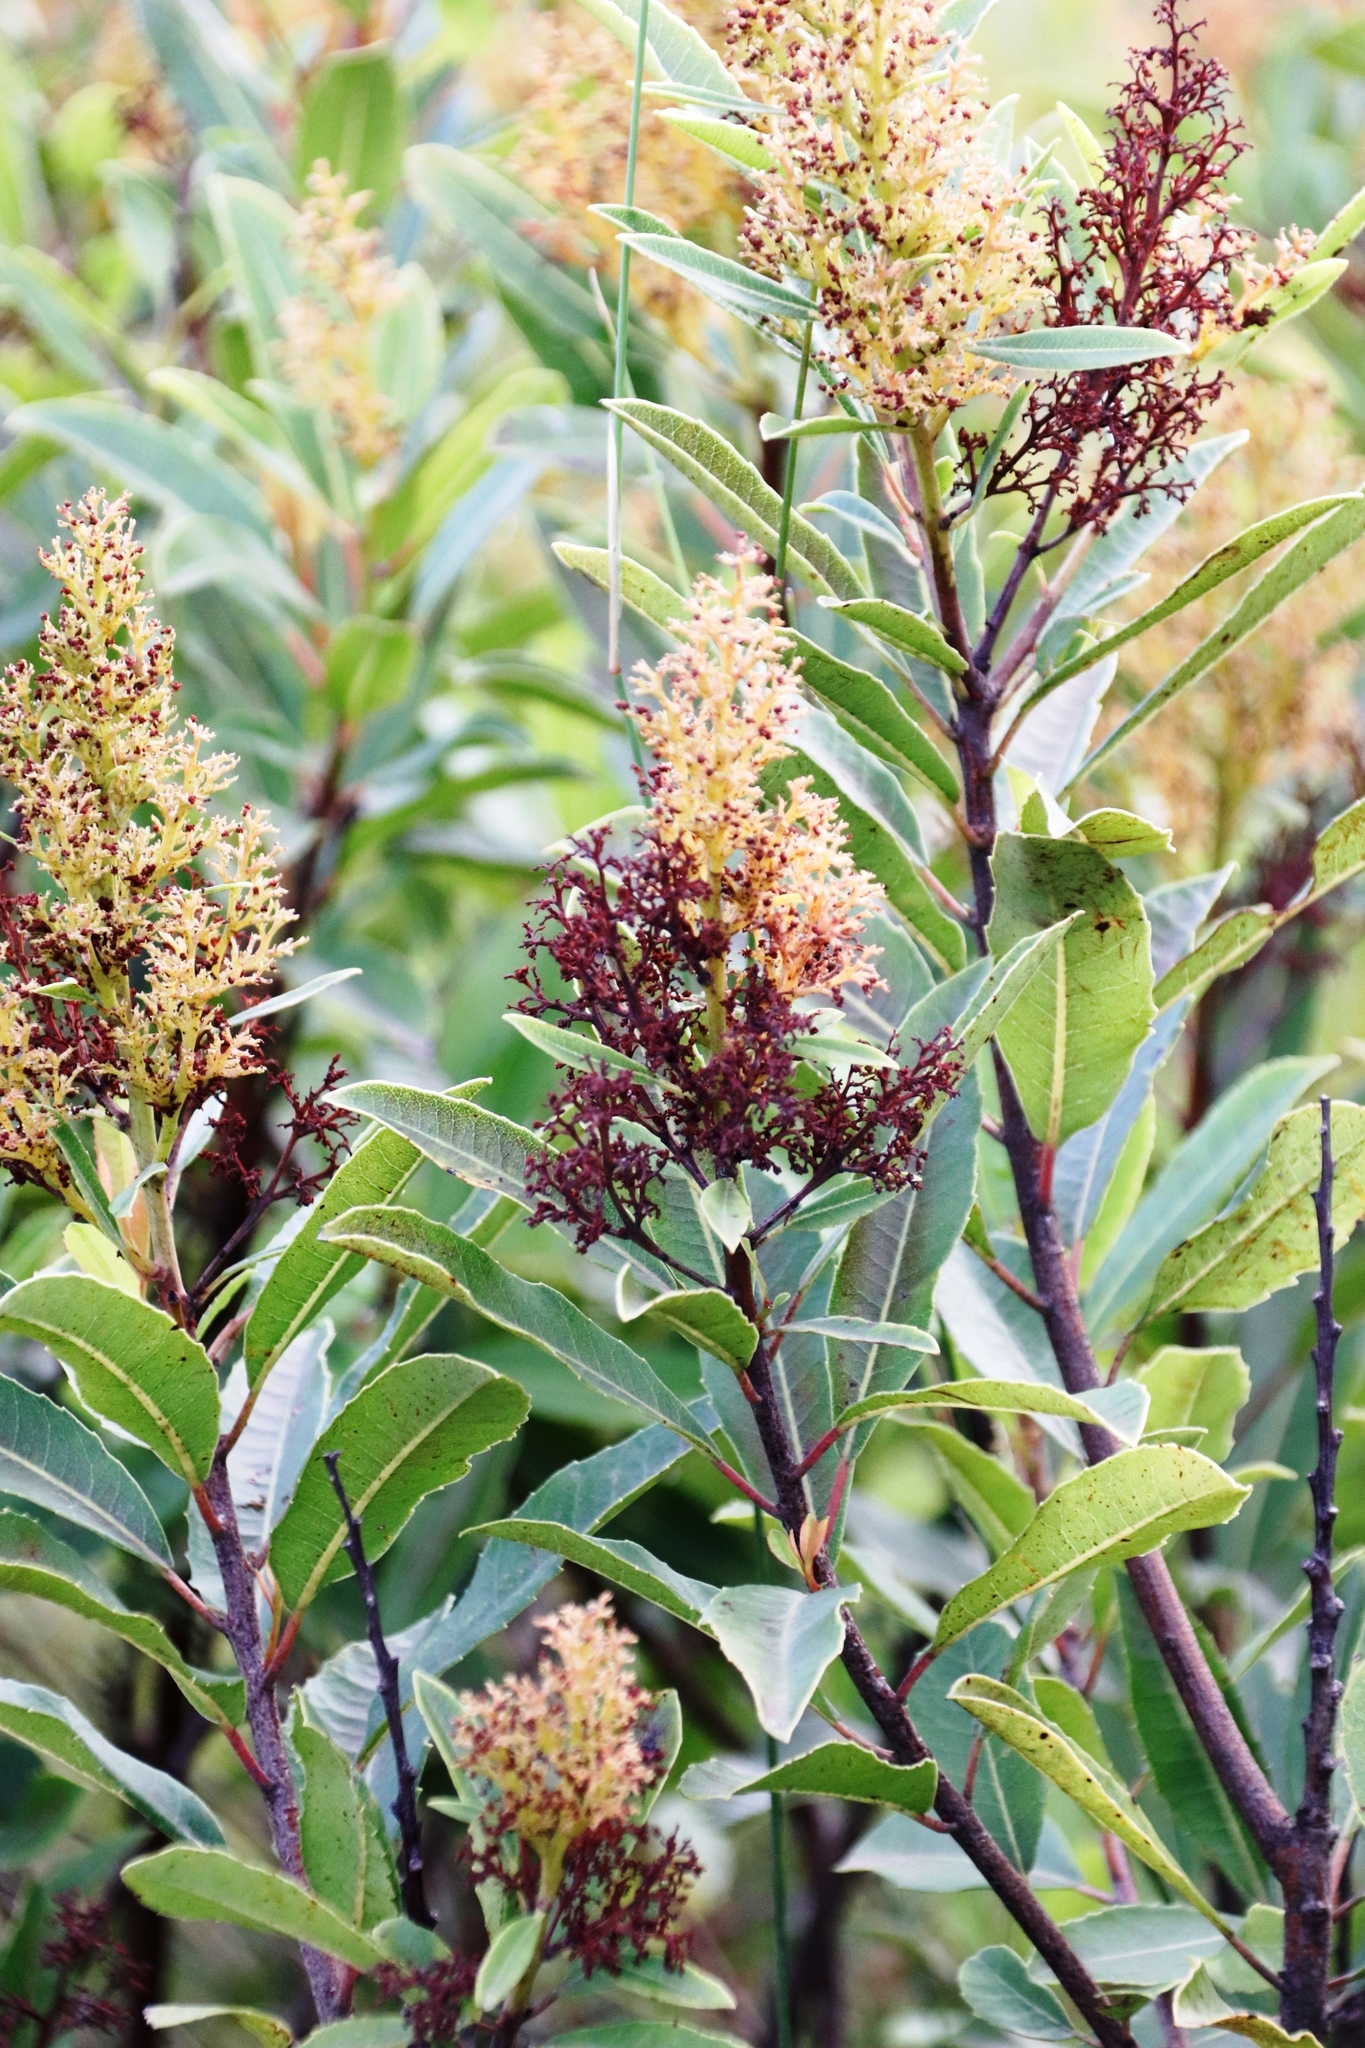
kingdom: Plantae
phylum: Tracheophyta
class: Magnoliopsida
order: Sapindales
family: Anacardiaceae
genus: Laurophyllus
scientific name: Laurophyllus capensis
